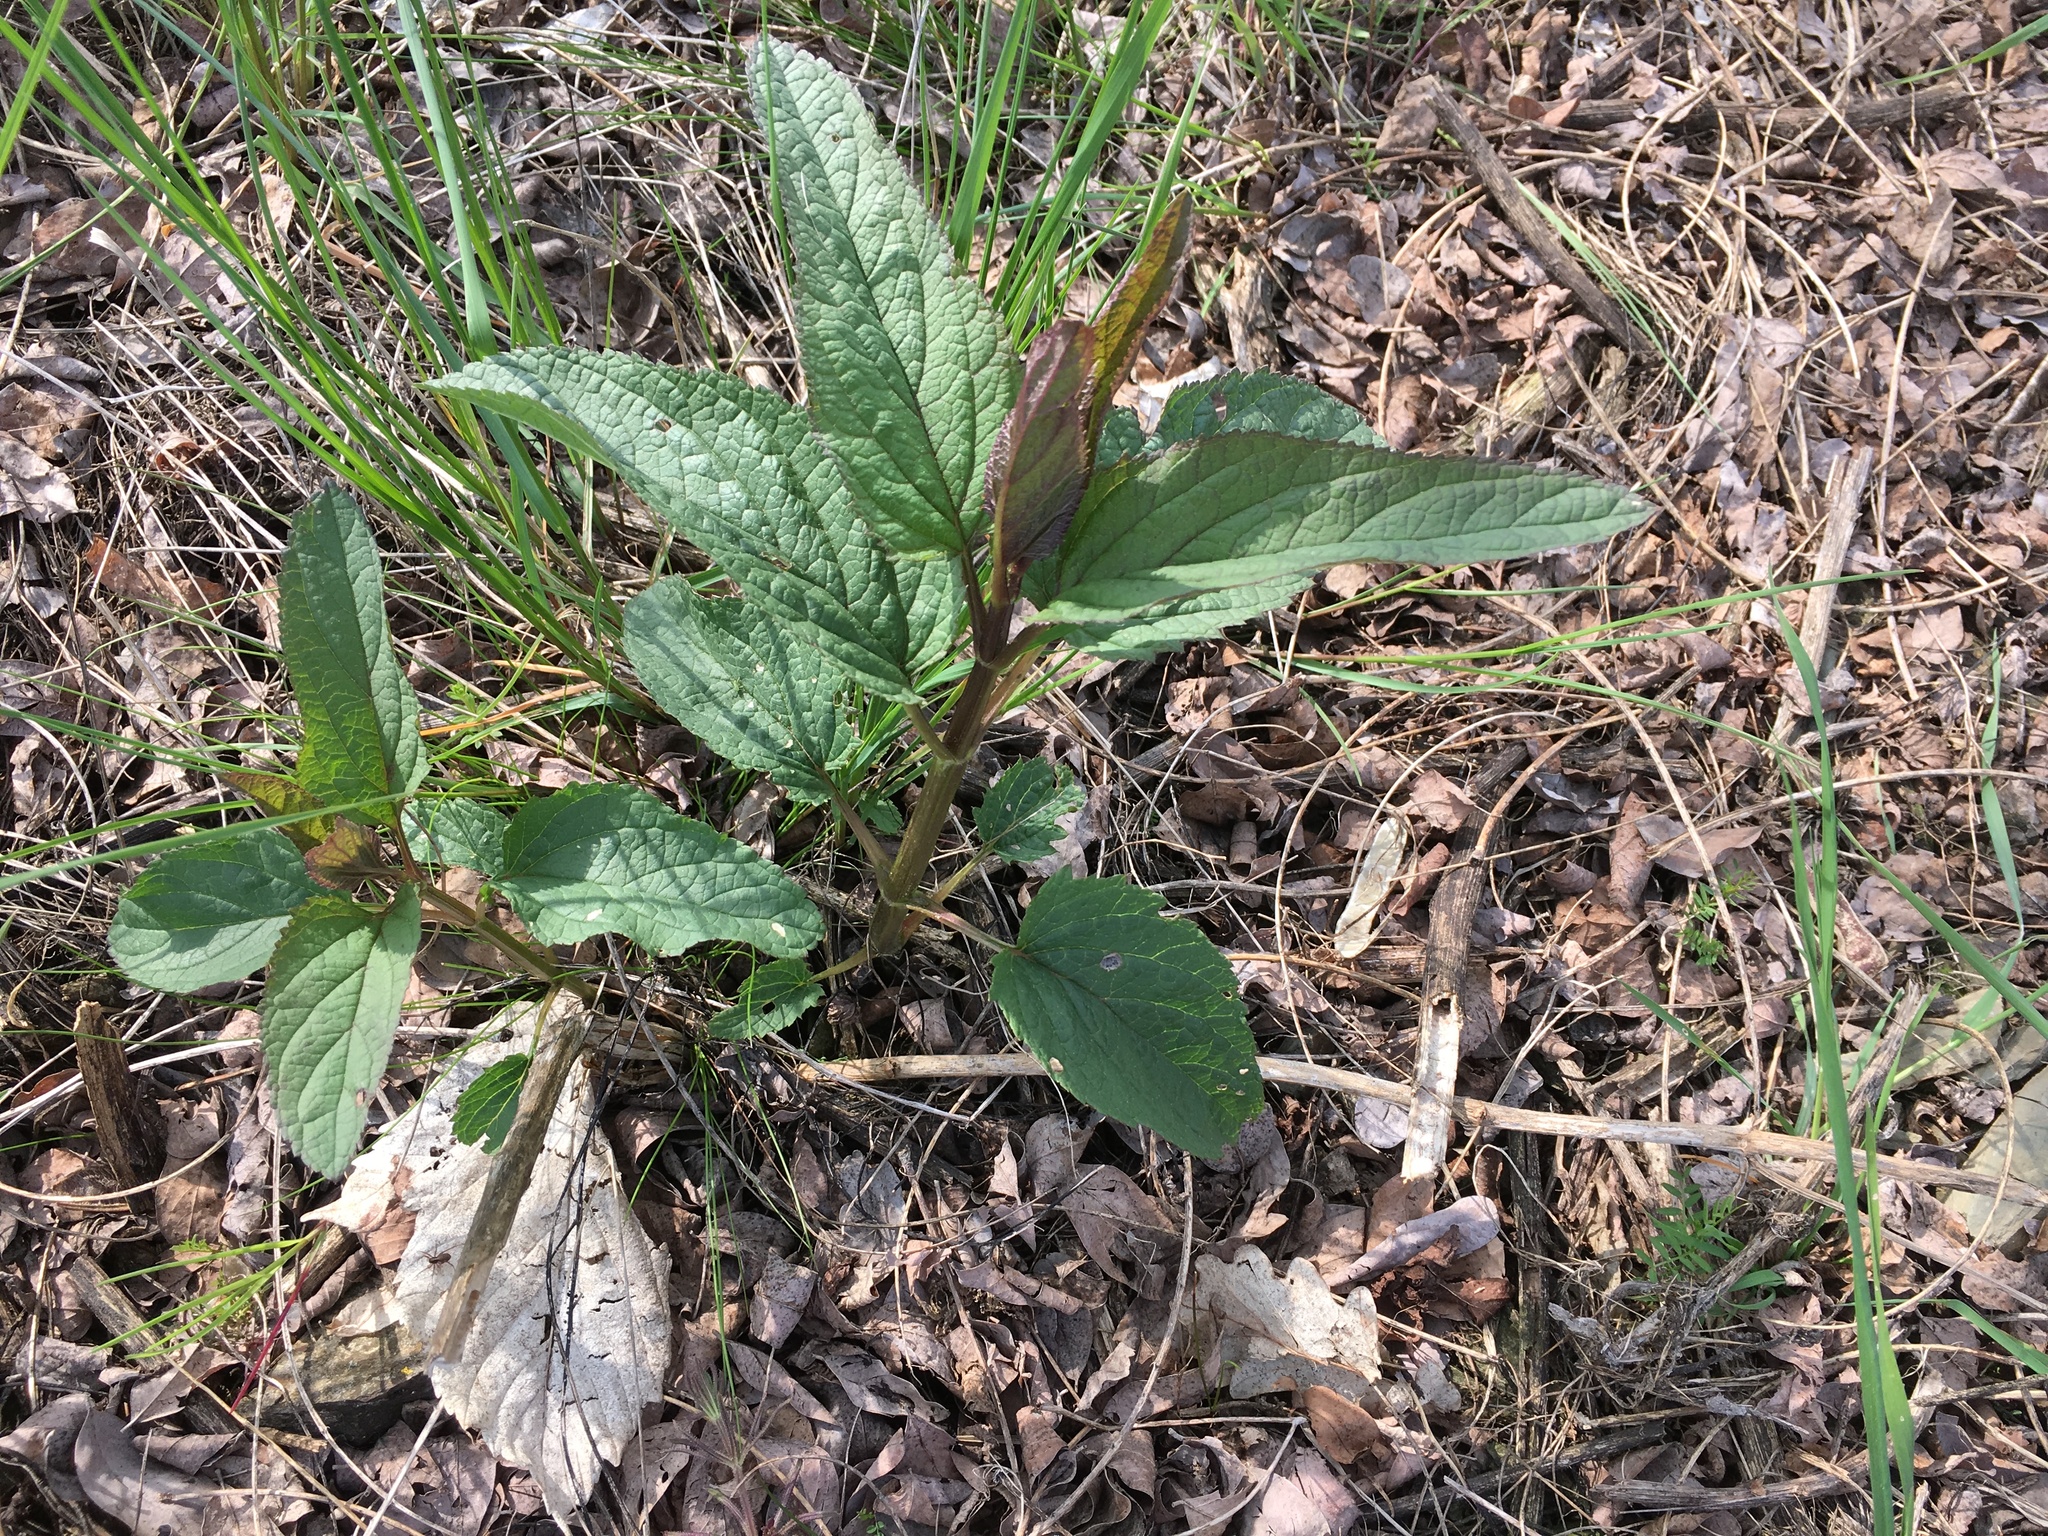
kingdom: Plantae
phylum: Tracheophyta
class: Magnoliopsida
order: Lamiales
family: Scrophulariaceae
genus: Scrophularia
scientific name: Scrophularia nodosa
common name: Common figwort
